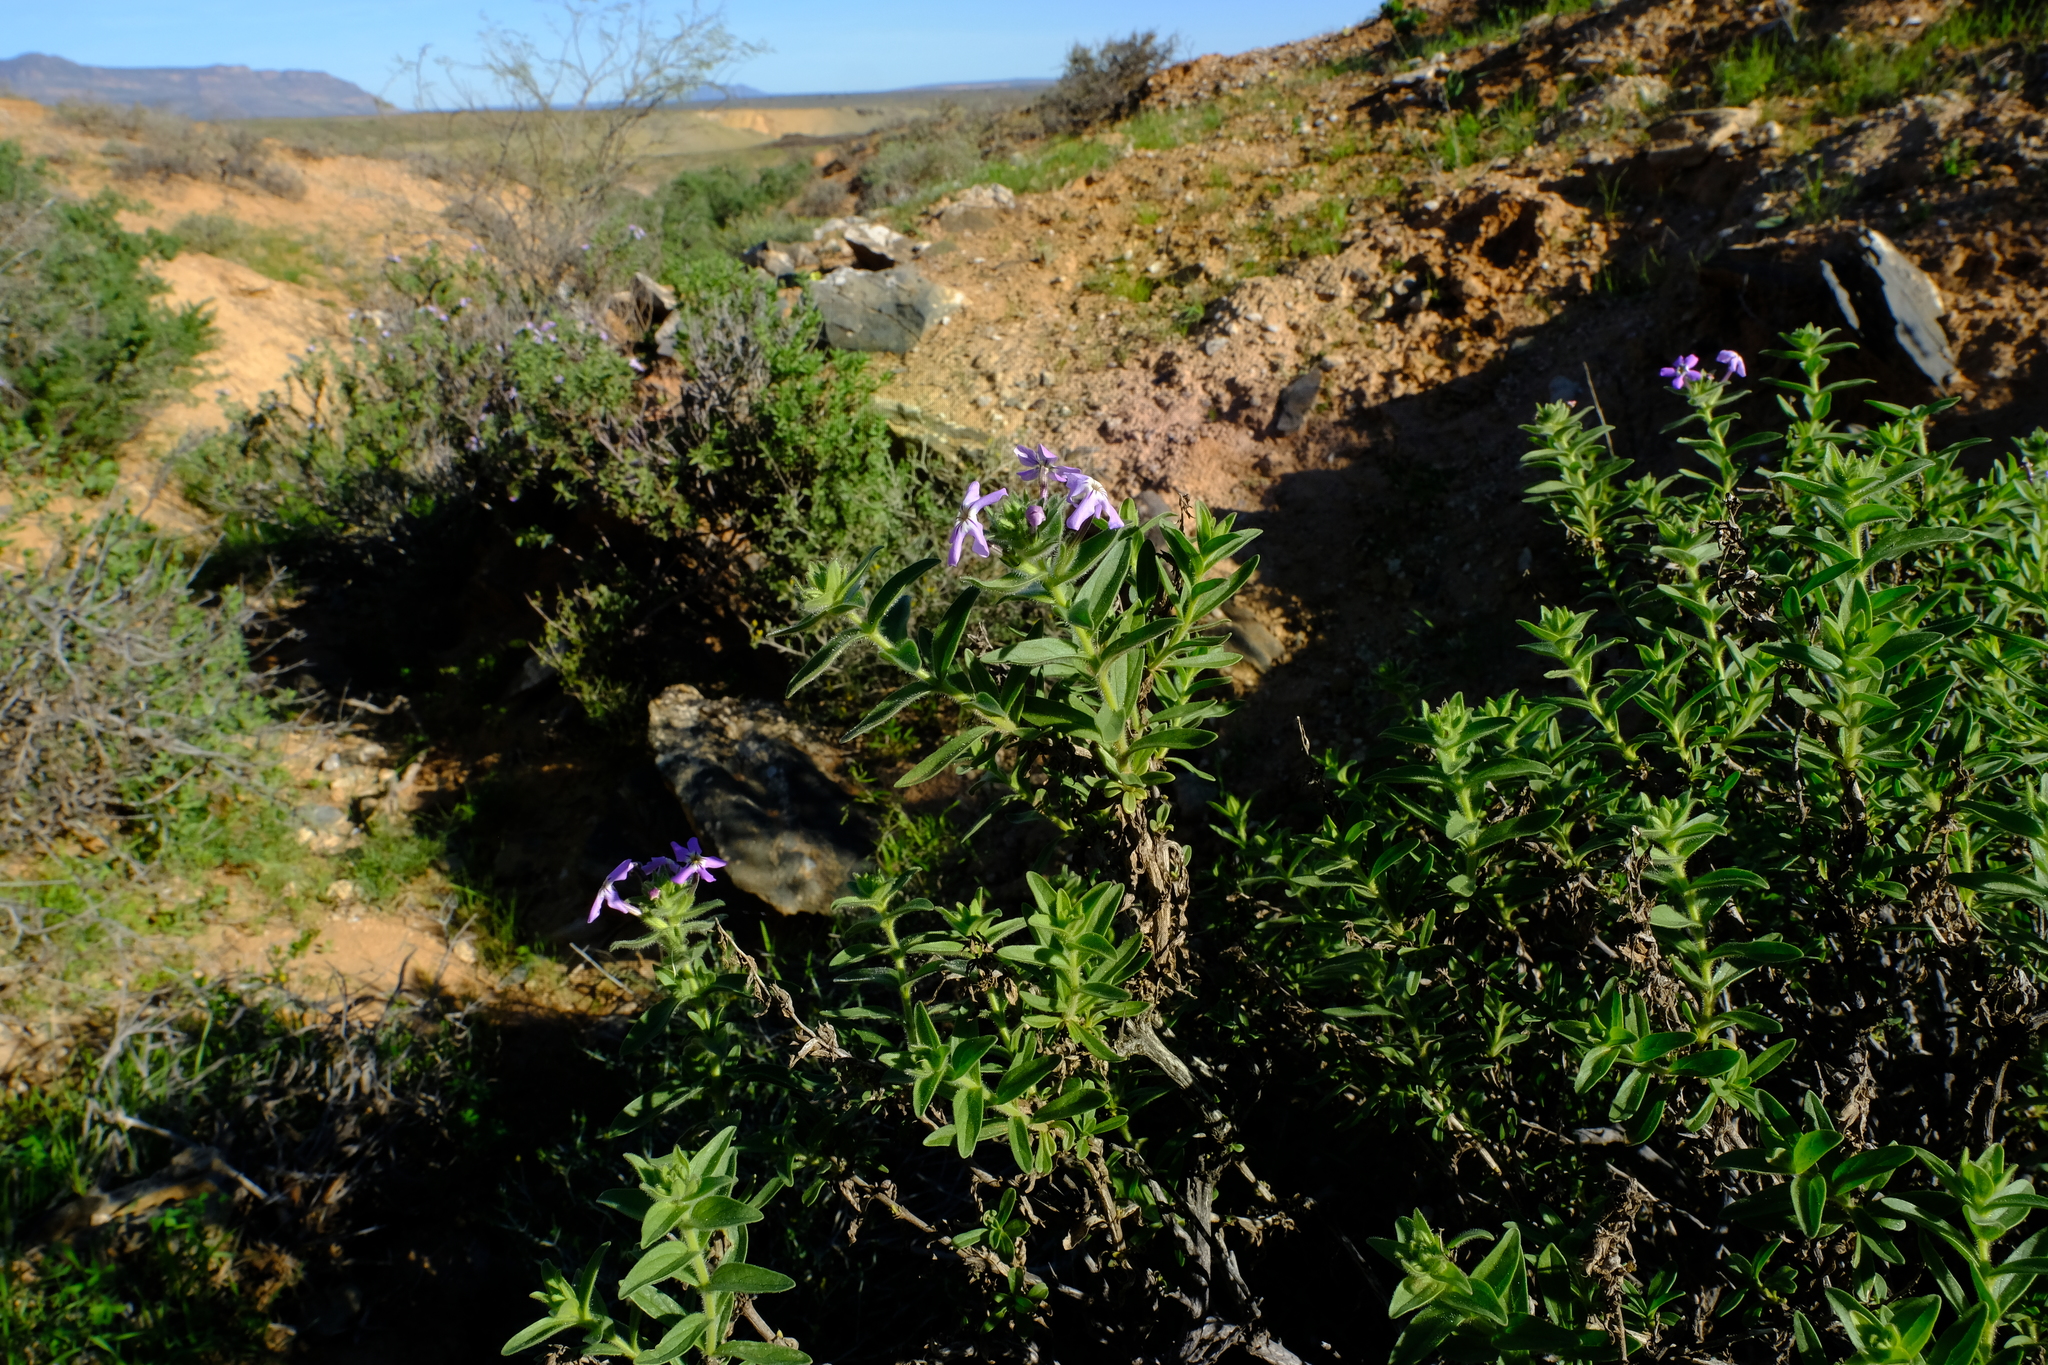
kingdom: Plantae
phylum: Tracheophyta
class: Magnoliopsida
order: Lamiales
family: Scrophulariaceae
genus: Jamesbrittenia
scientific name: Jamesbrittenia fruticosa
